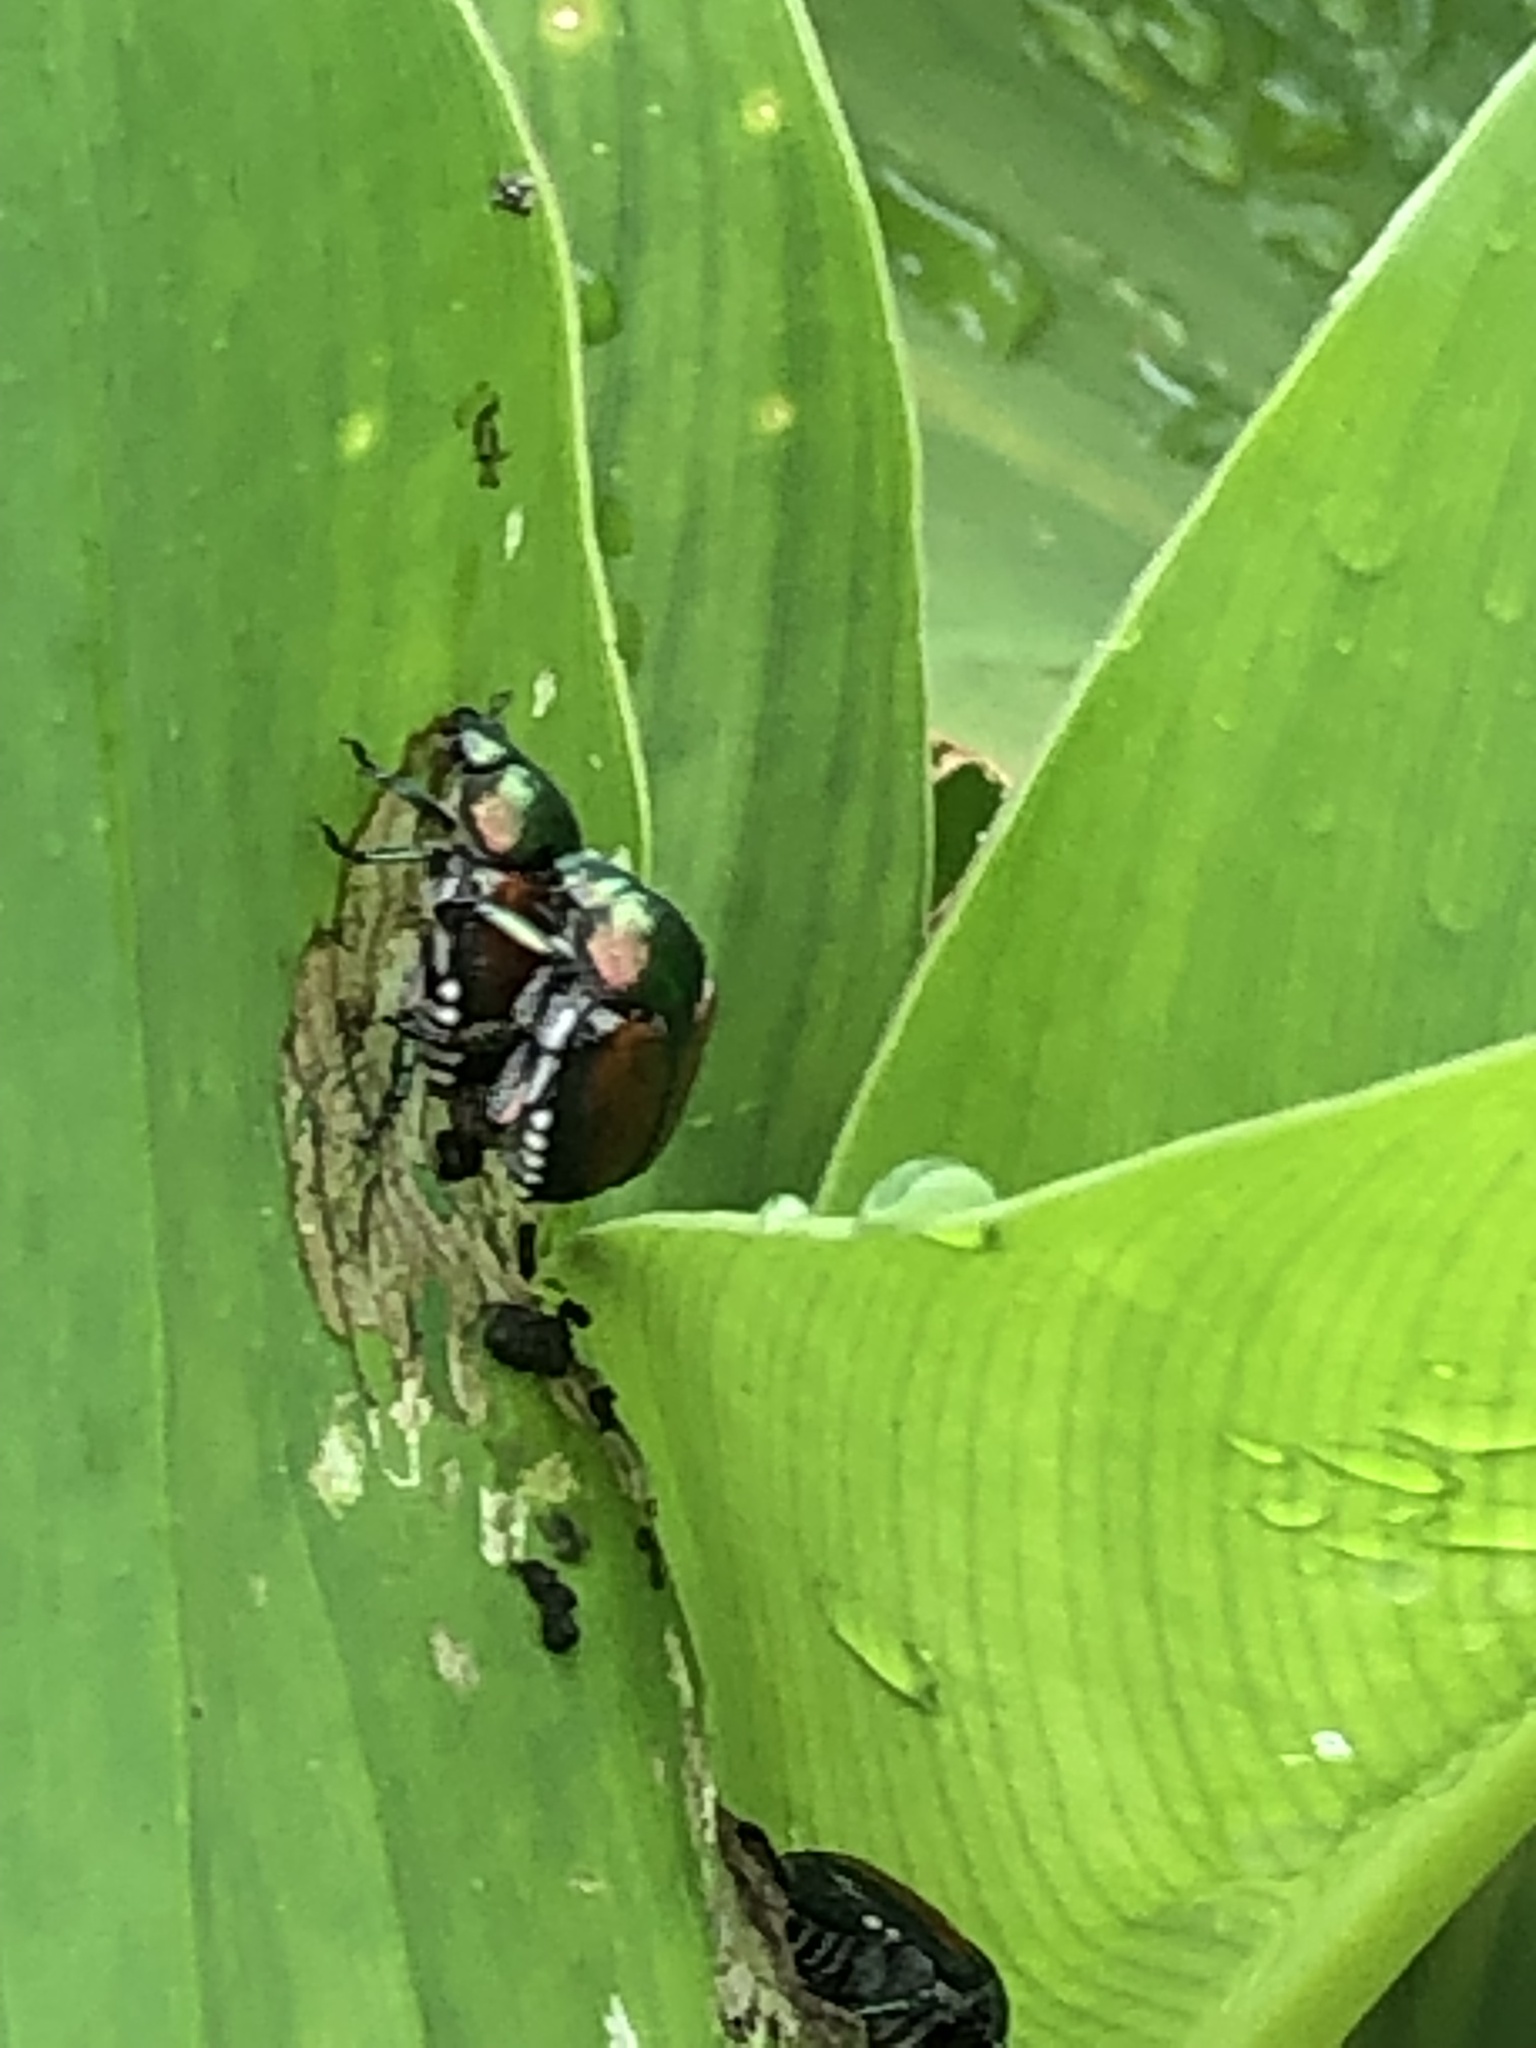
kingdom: Animalia
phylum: Arthropoda
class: Insecta
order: Coleoptera
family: Scarabaeidae
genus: Popillia
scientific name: Popillia japonica
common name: Japanese beetle
